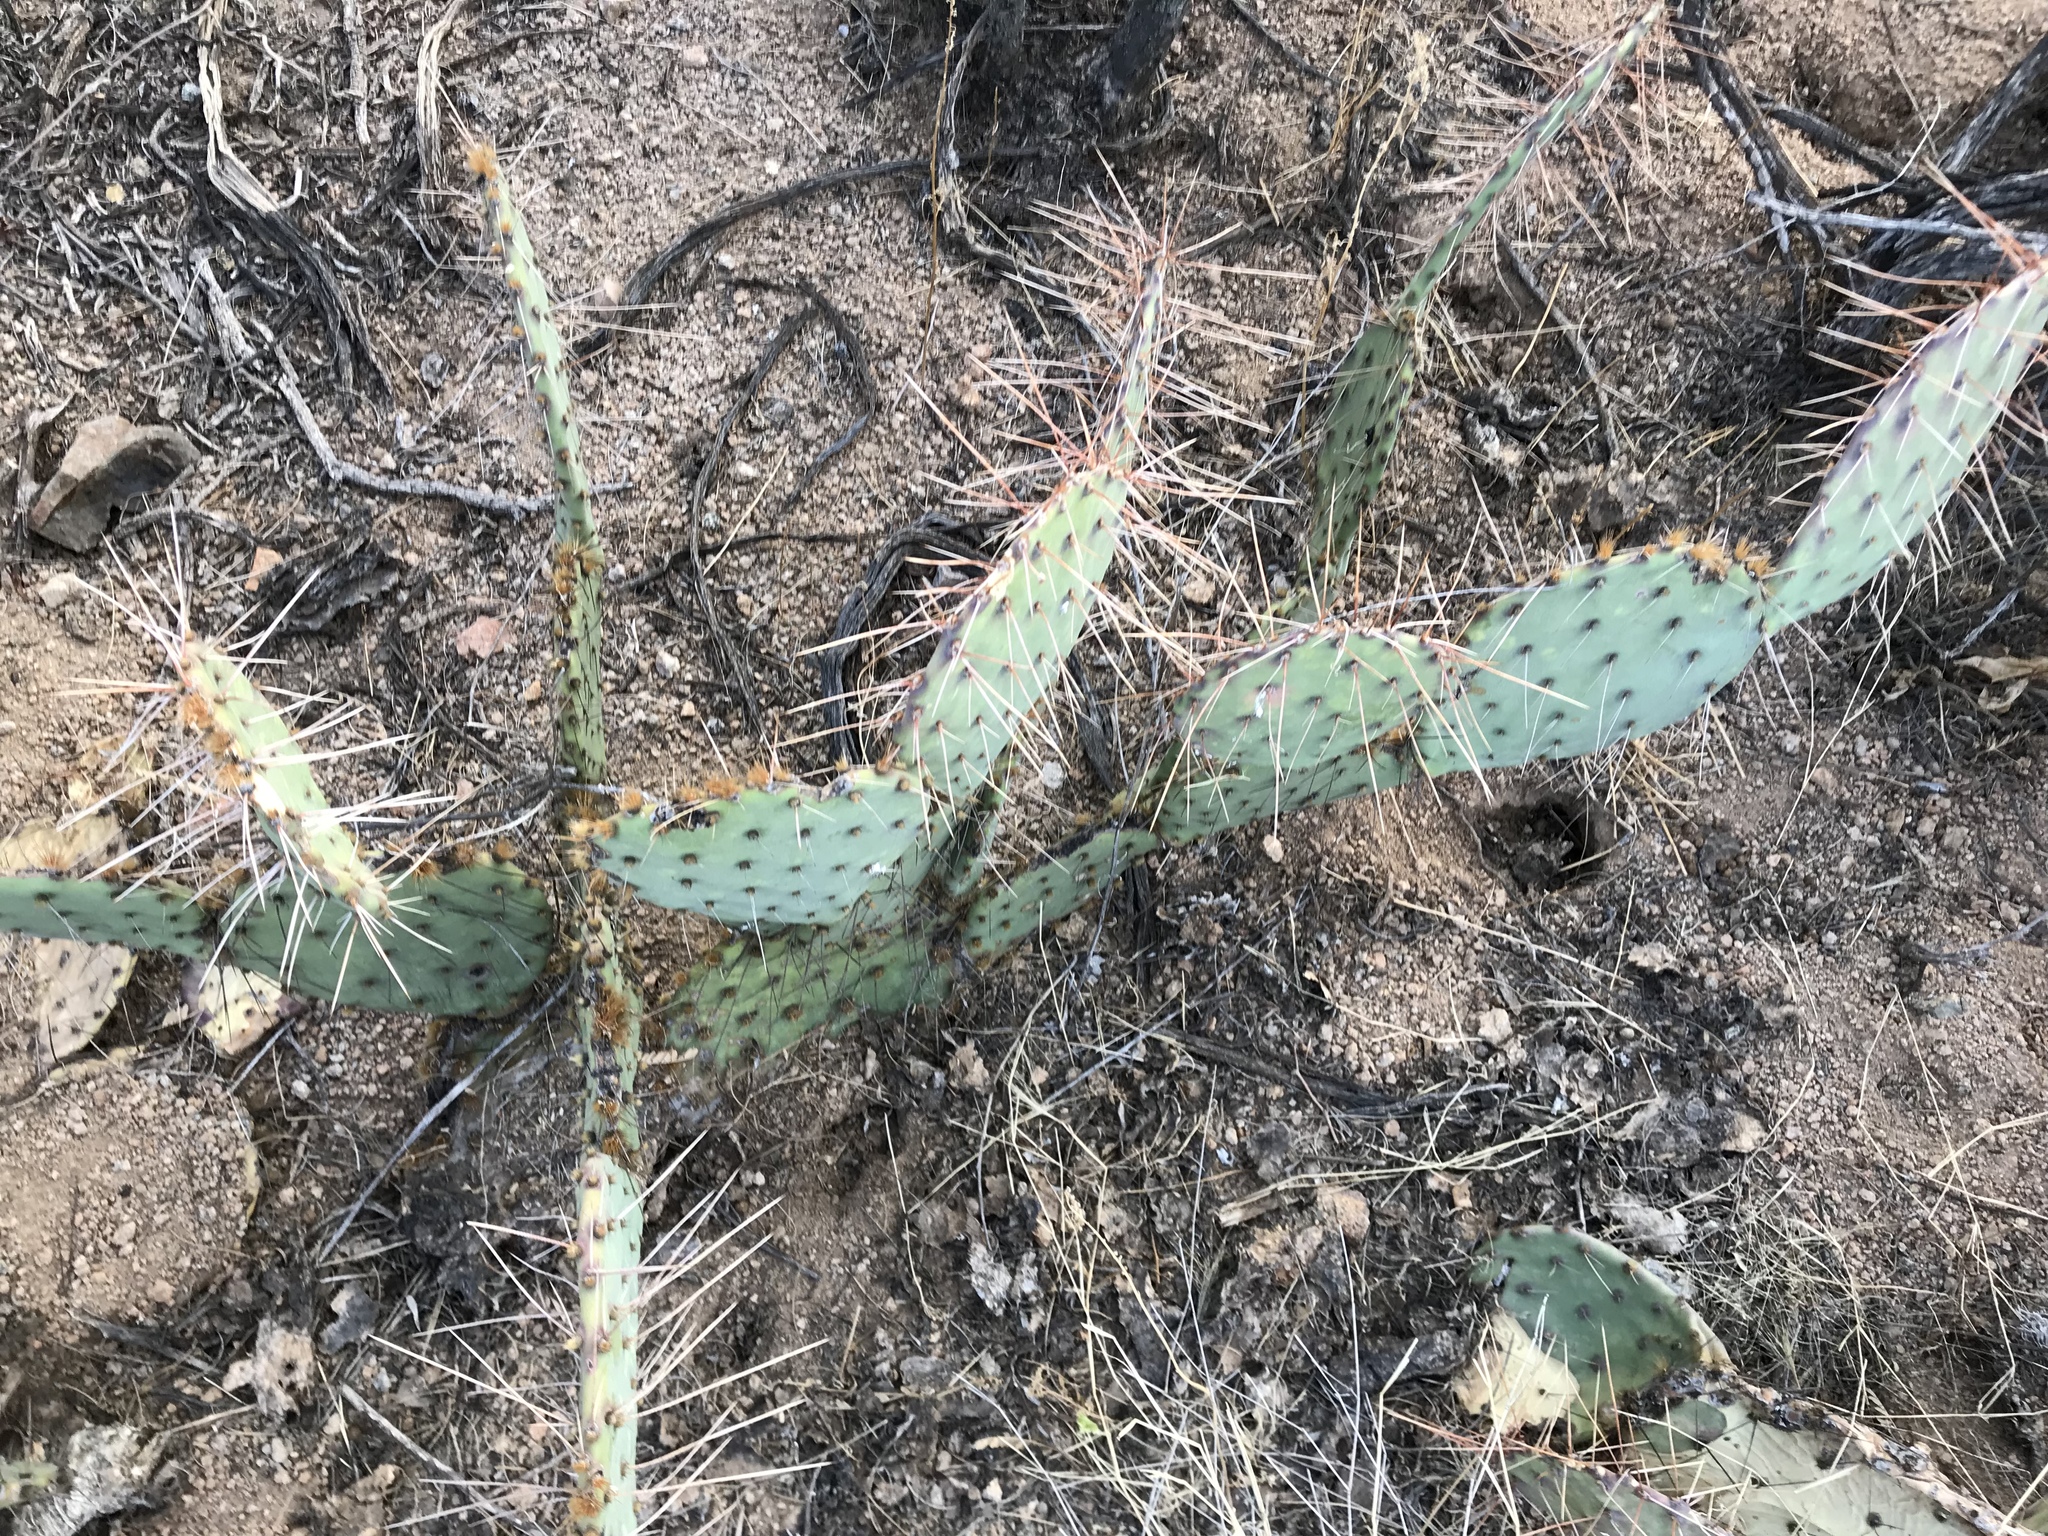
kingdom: Plantae
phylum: Tracheophyta
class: Magnoliopsida
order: Caryophyllales
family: Cactaceae
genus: Opuntia
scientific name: Opuntia phaeacantha
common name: New mexico prickly-pear
